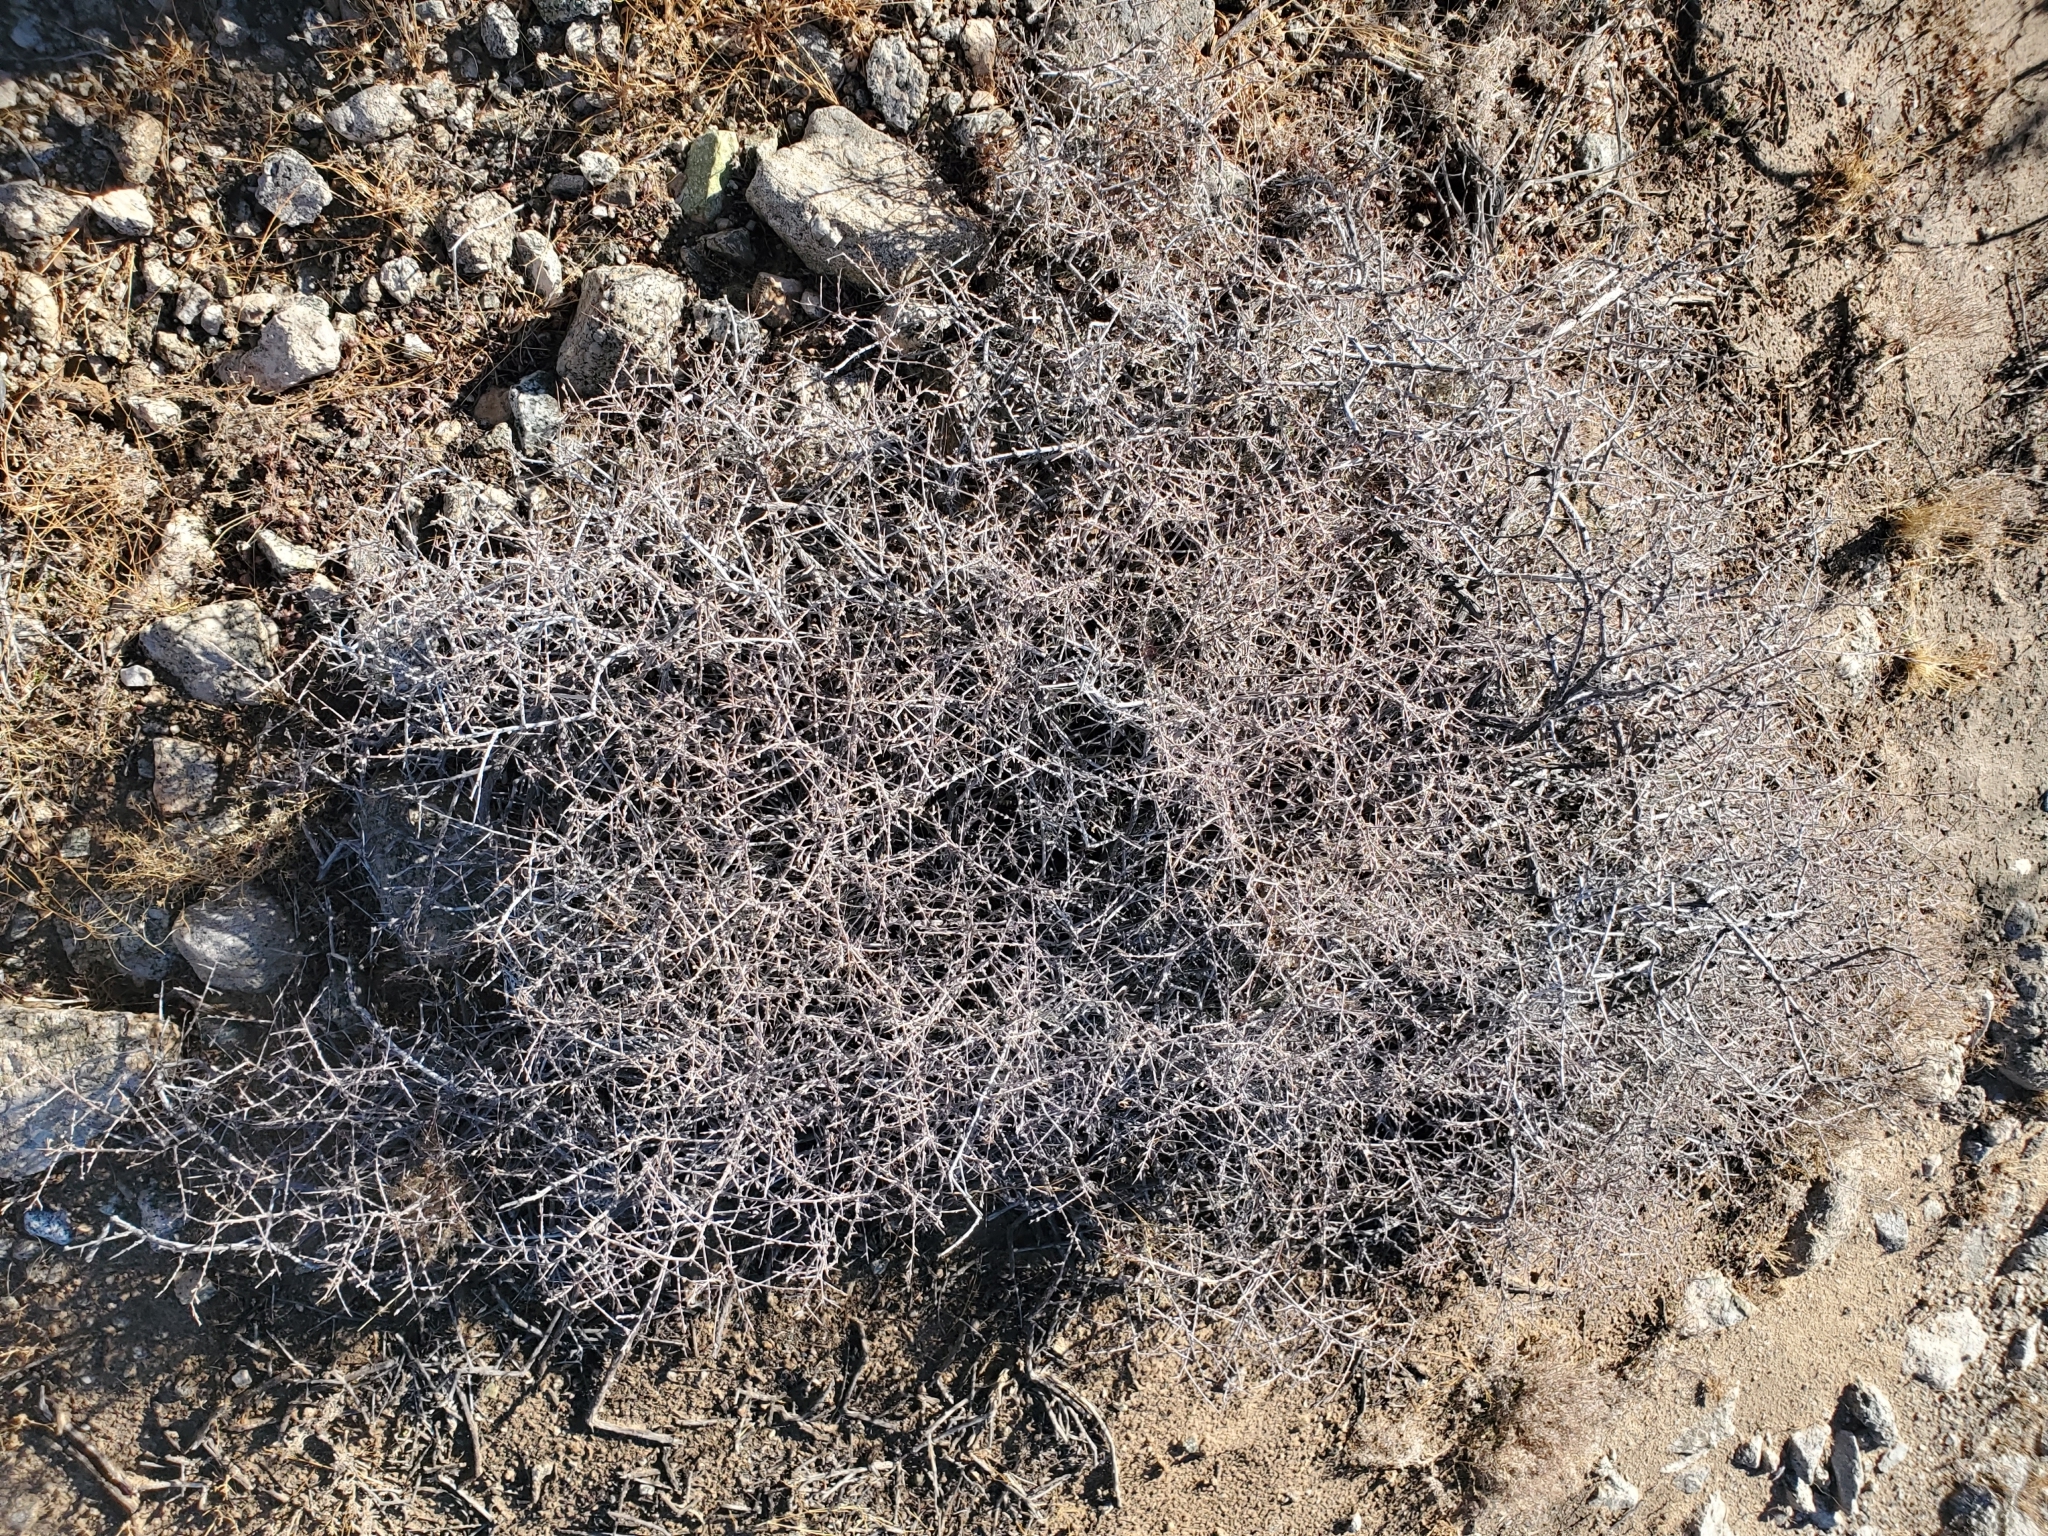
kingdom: Plantae
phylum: Tracheophyta
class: Magnoliopsida
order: Zygophyllales
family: Krameriaceae
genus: Krameria
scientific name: Krameria erecta
